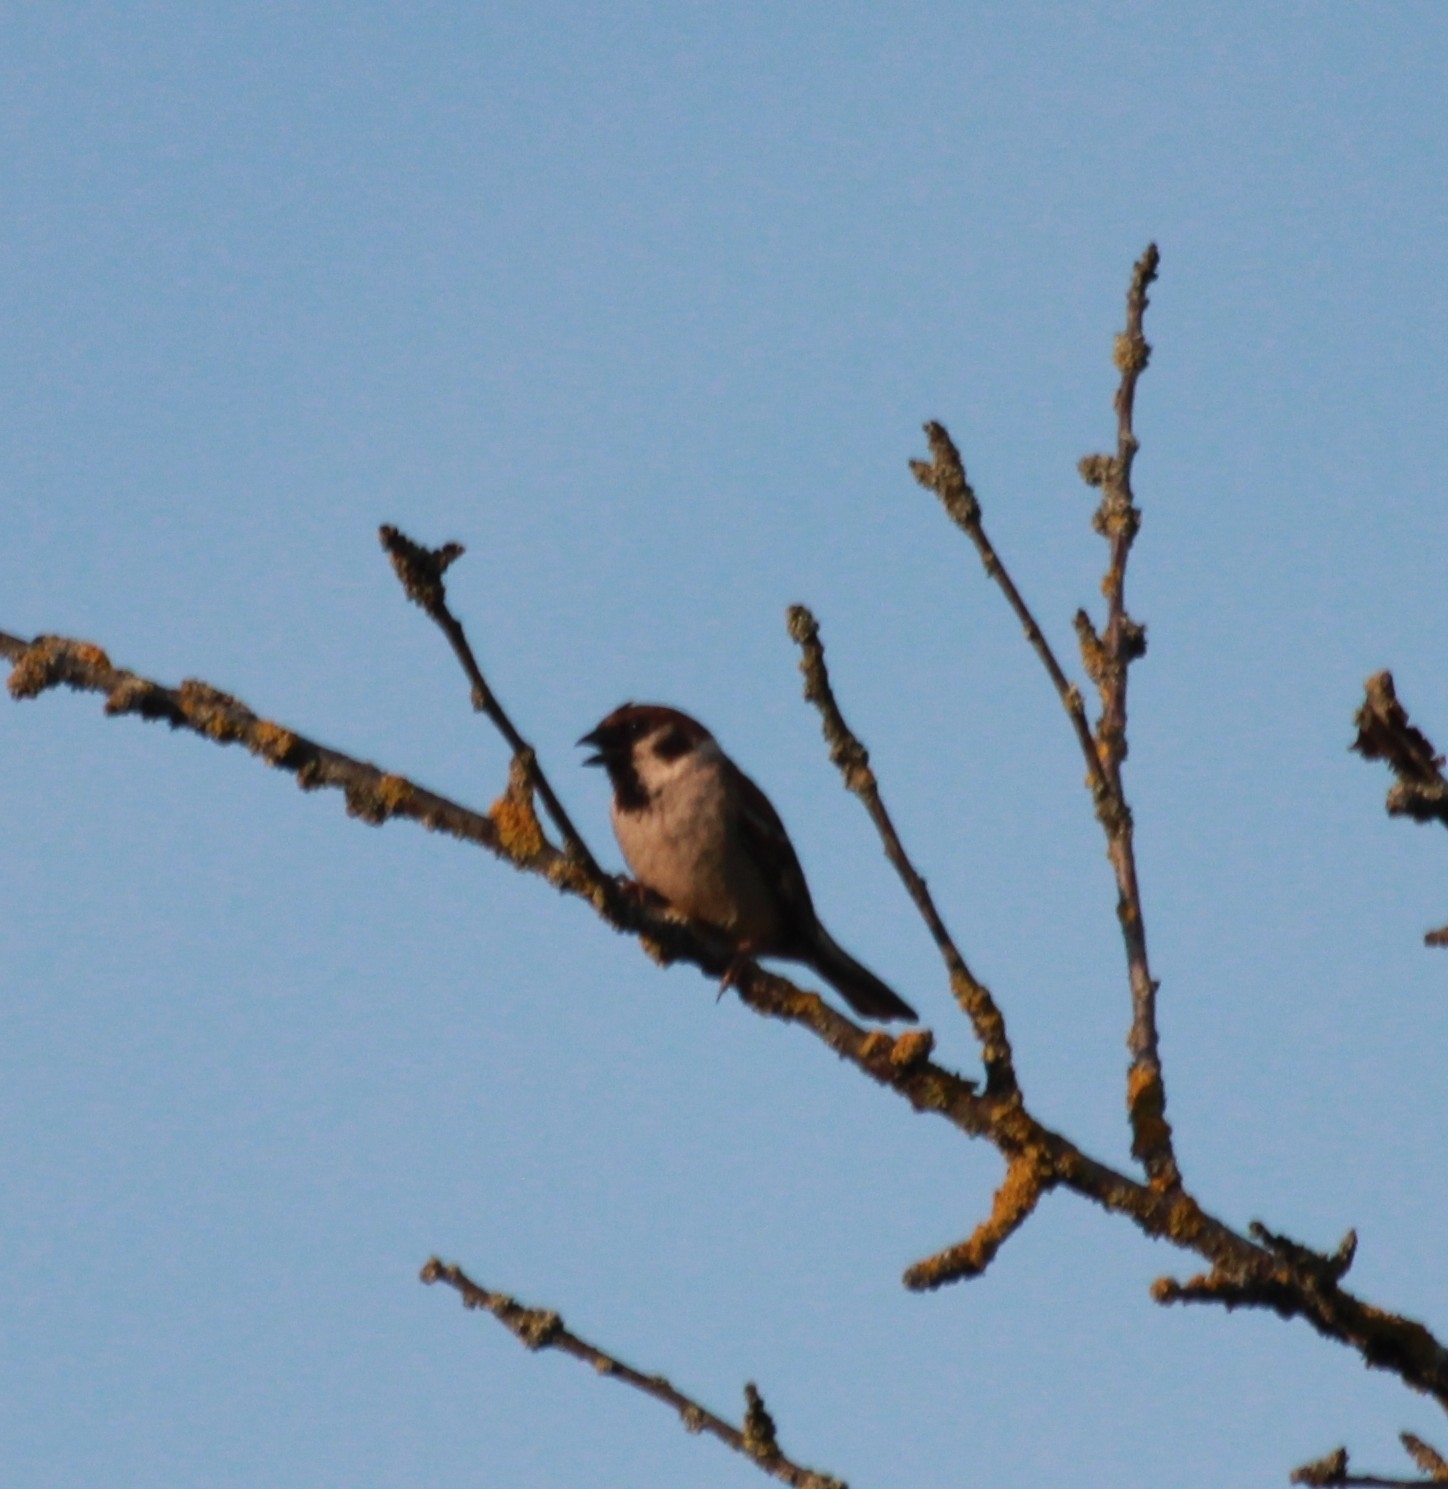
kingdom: Animalia
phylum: Chordata
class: Aves
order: Passeriformes
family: Passeridae
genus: Passer
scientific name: Passer montanus
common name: Eurasian tree sparrow
